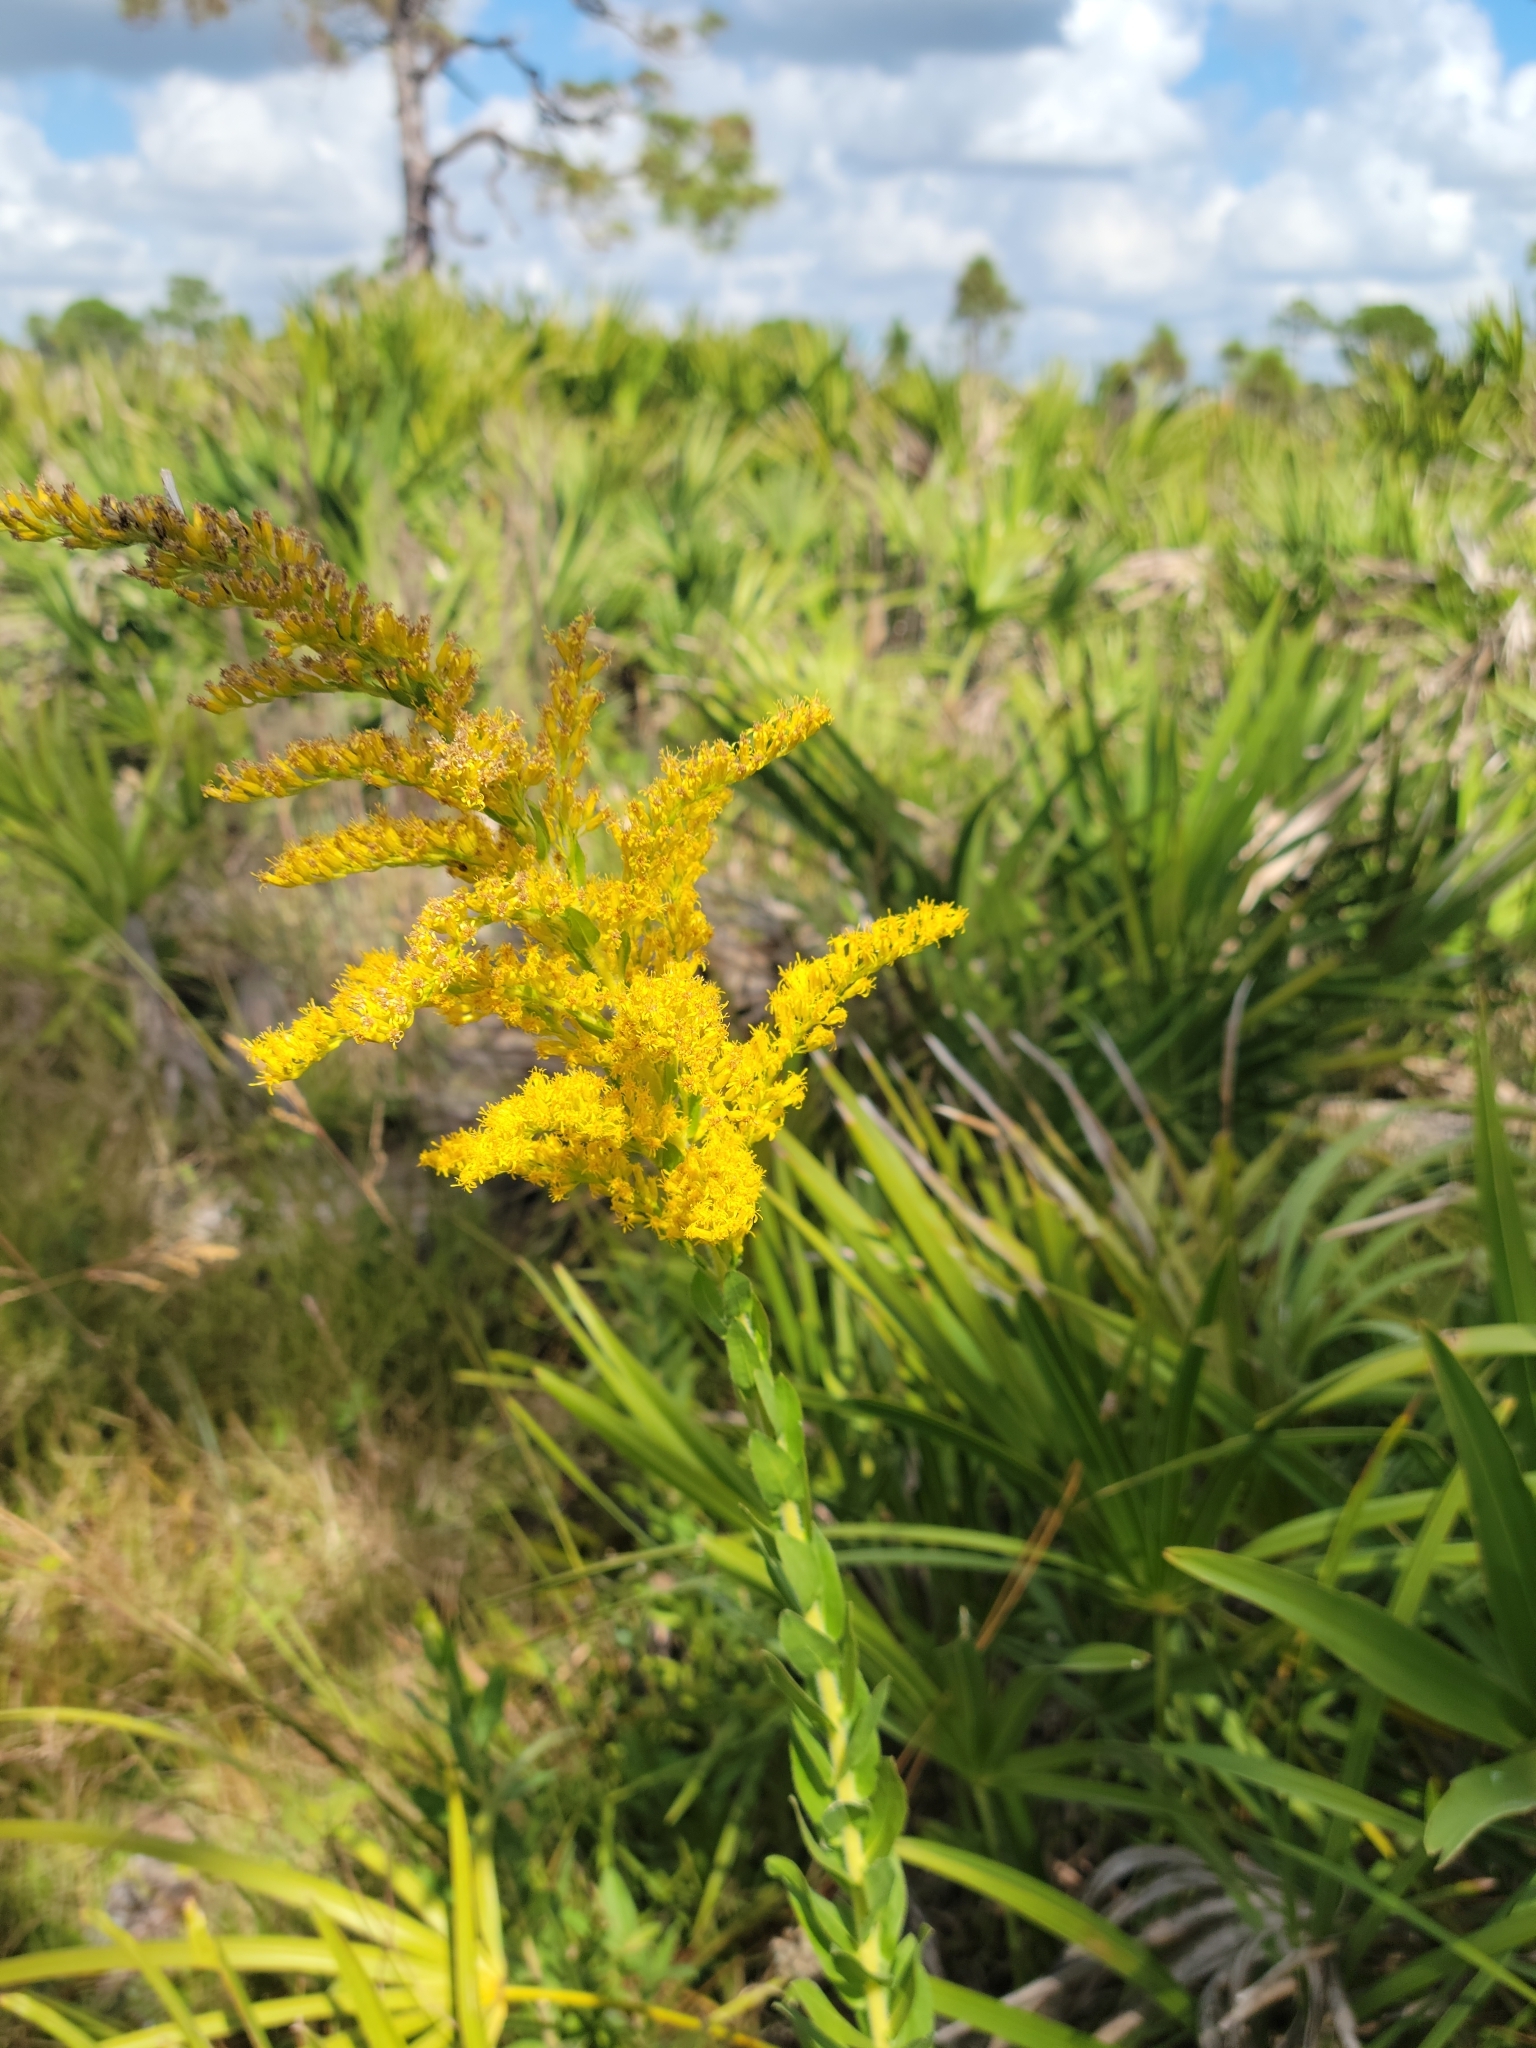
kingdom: Plantae
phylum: Tracheophyta
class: Magnoliopsida
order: Asterales
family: Asteraceae
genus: Solidago
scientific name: Solidago fistulosa
